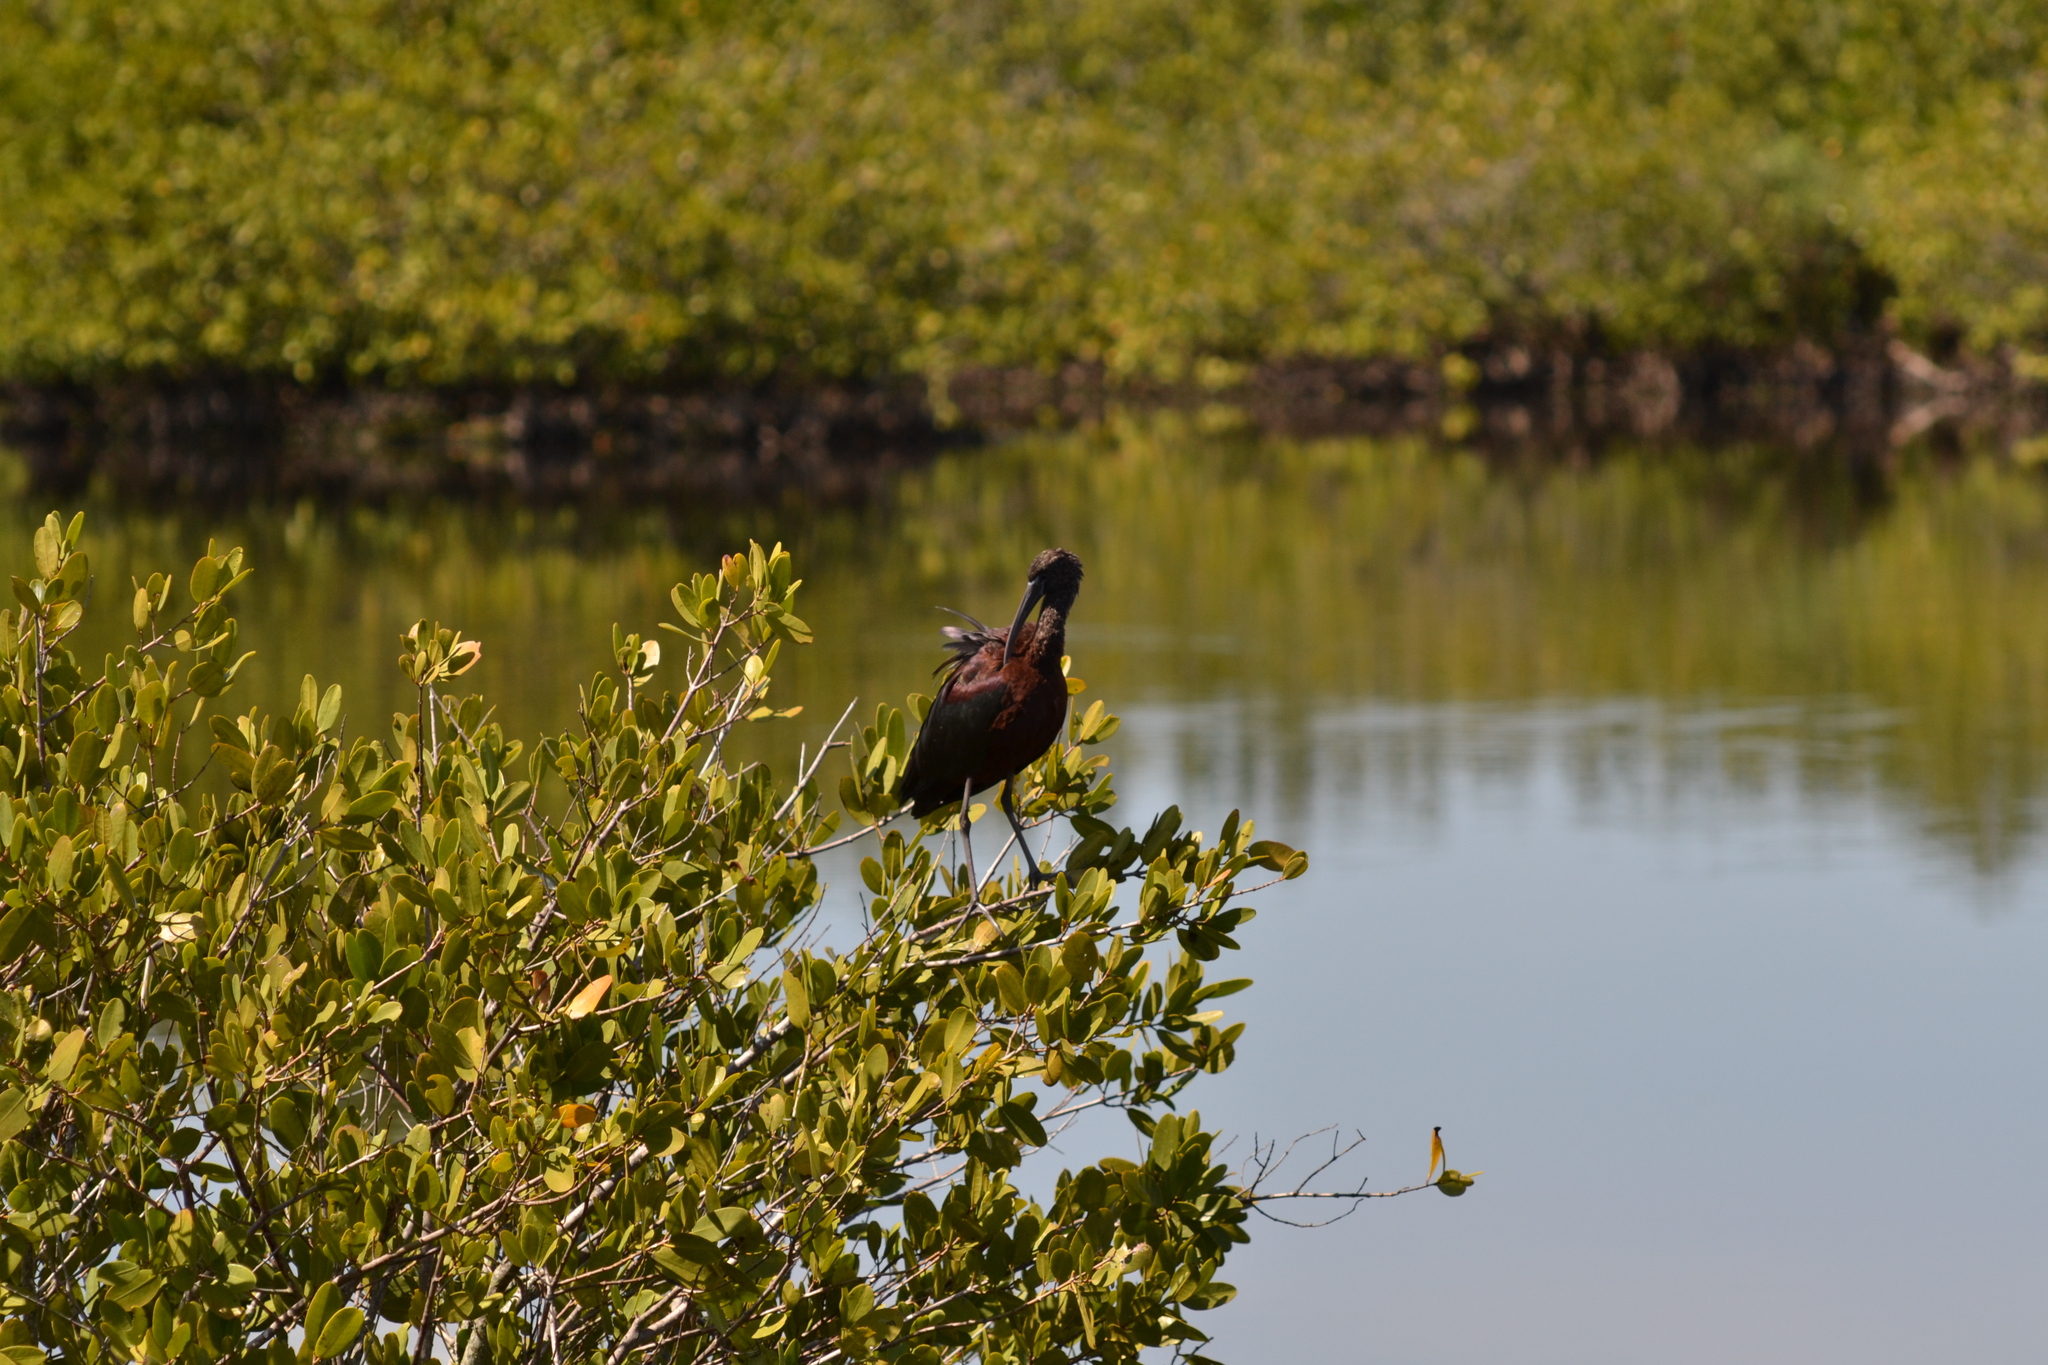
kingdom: Animalia
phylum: Chordata
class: Aves
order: Pelecaniformes
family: Threskiornithidae
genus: Plegadis
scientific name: Plegadis falcinellus
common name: Glossy ibis
